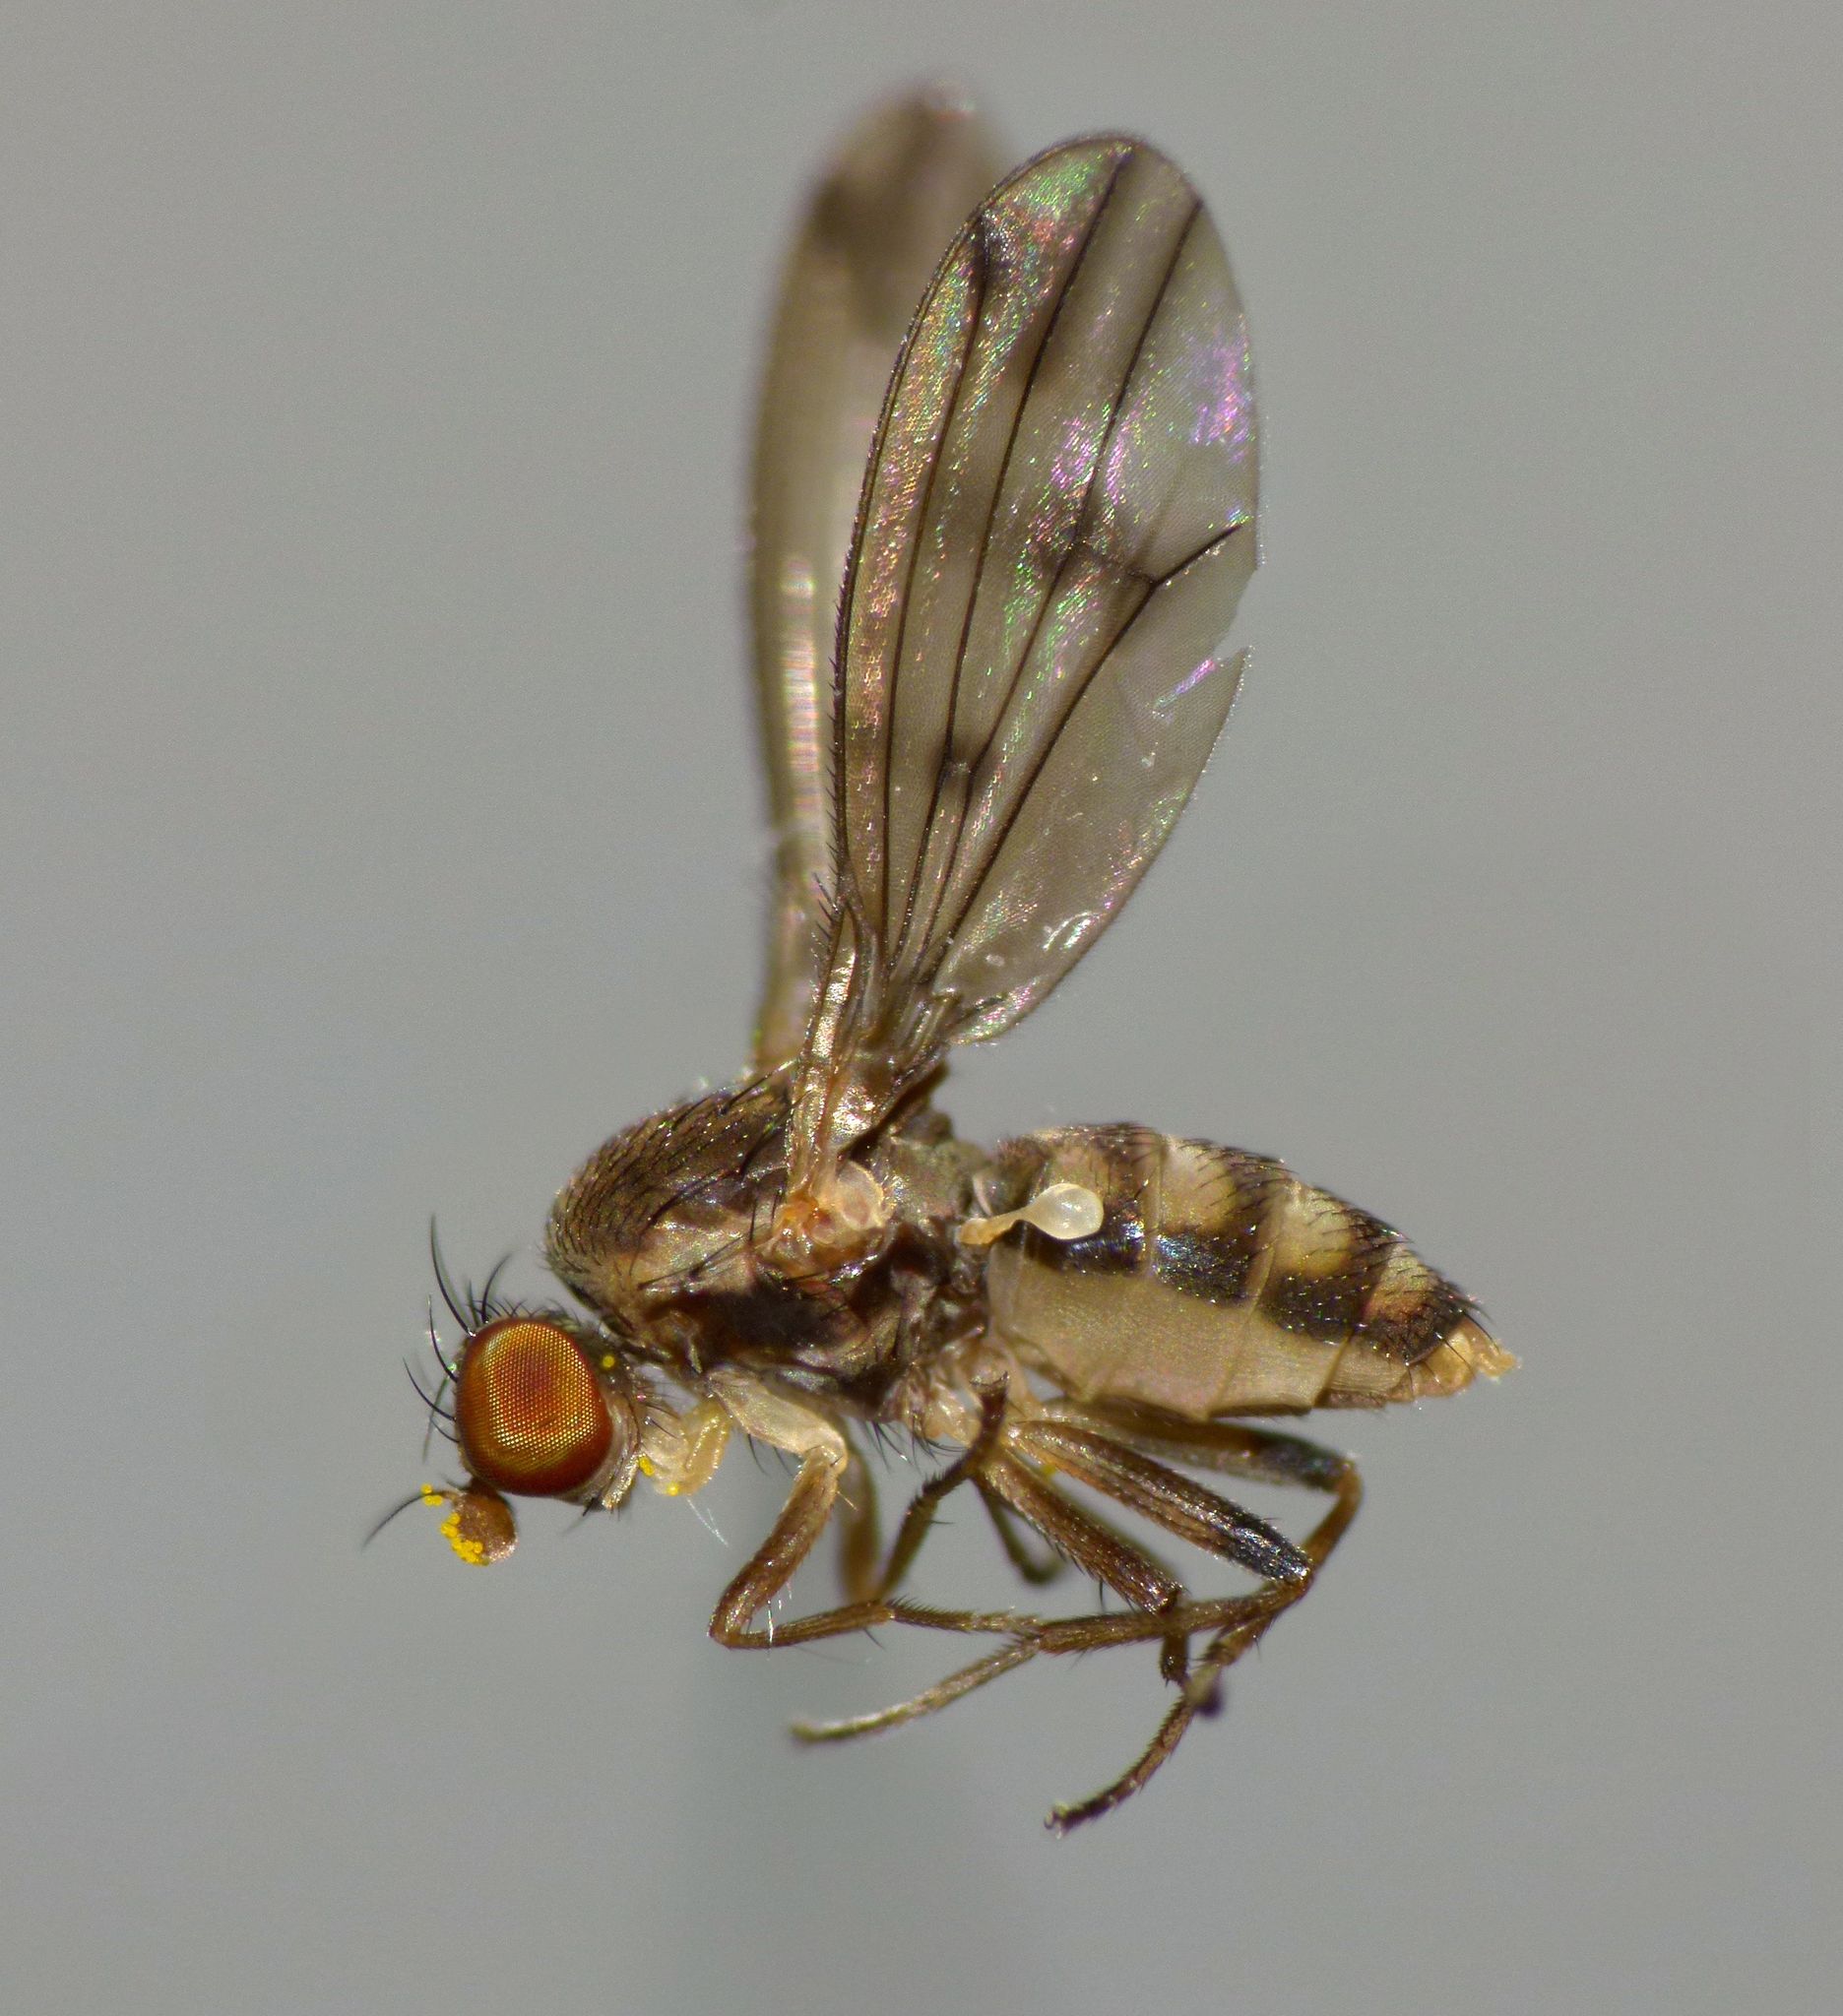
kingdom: Animalia
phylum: Arthropoda
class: Insecta
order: Diptera
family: Heleomyzidae
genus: Fenwickia
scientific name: Fenwickia hirsuta
